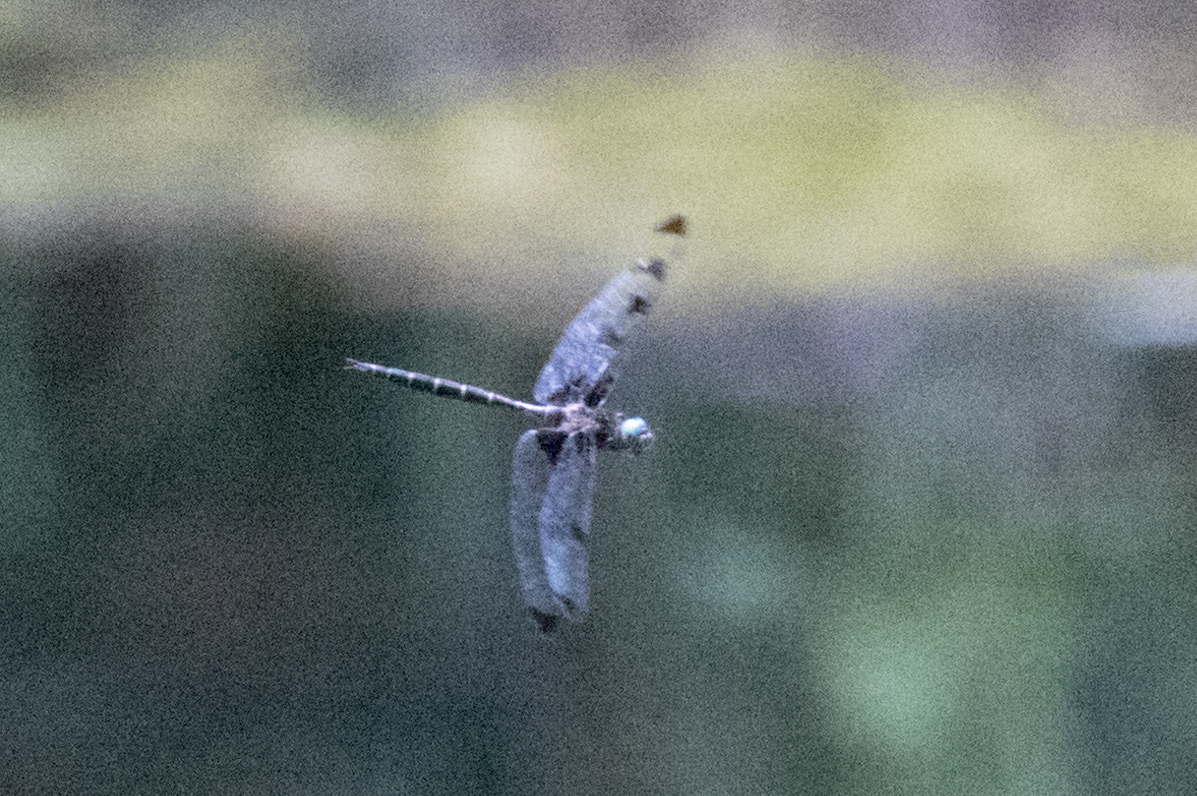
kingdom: Animalia
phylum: Arthropoda
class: Insecta
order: Odonata
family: Corduliidae
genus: Epitheca
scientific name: Epitheca princeps
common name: Prince baskettail
